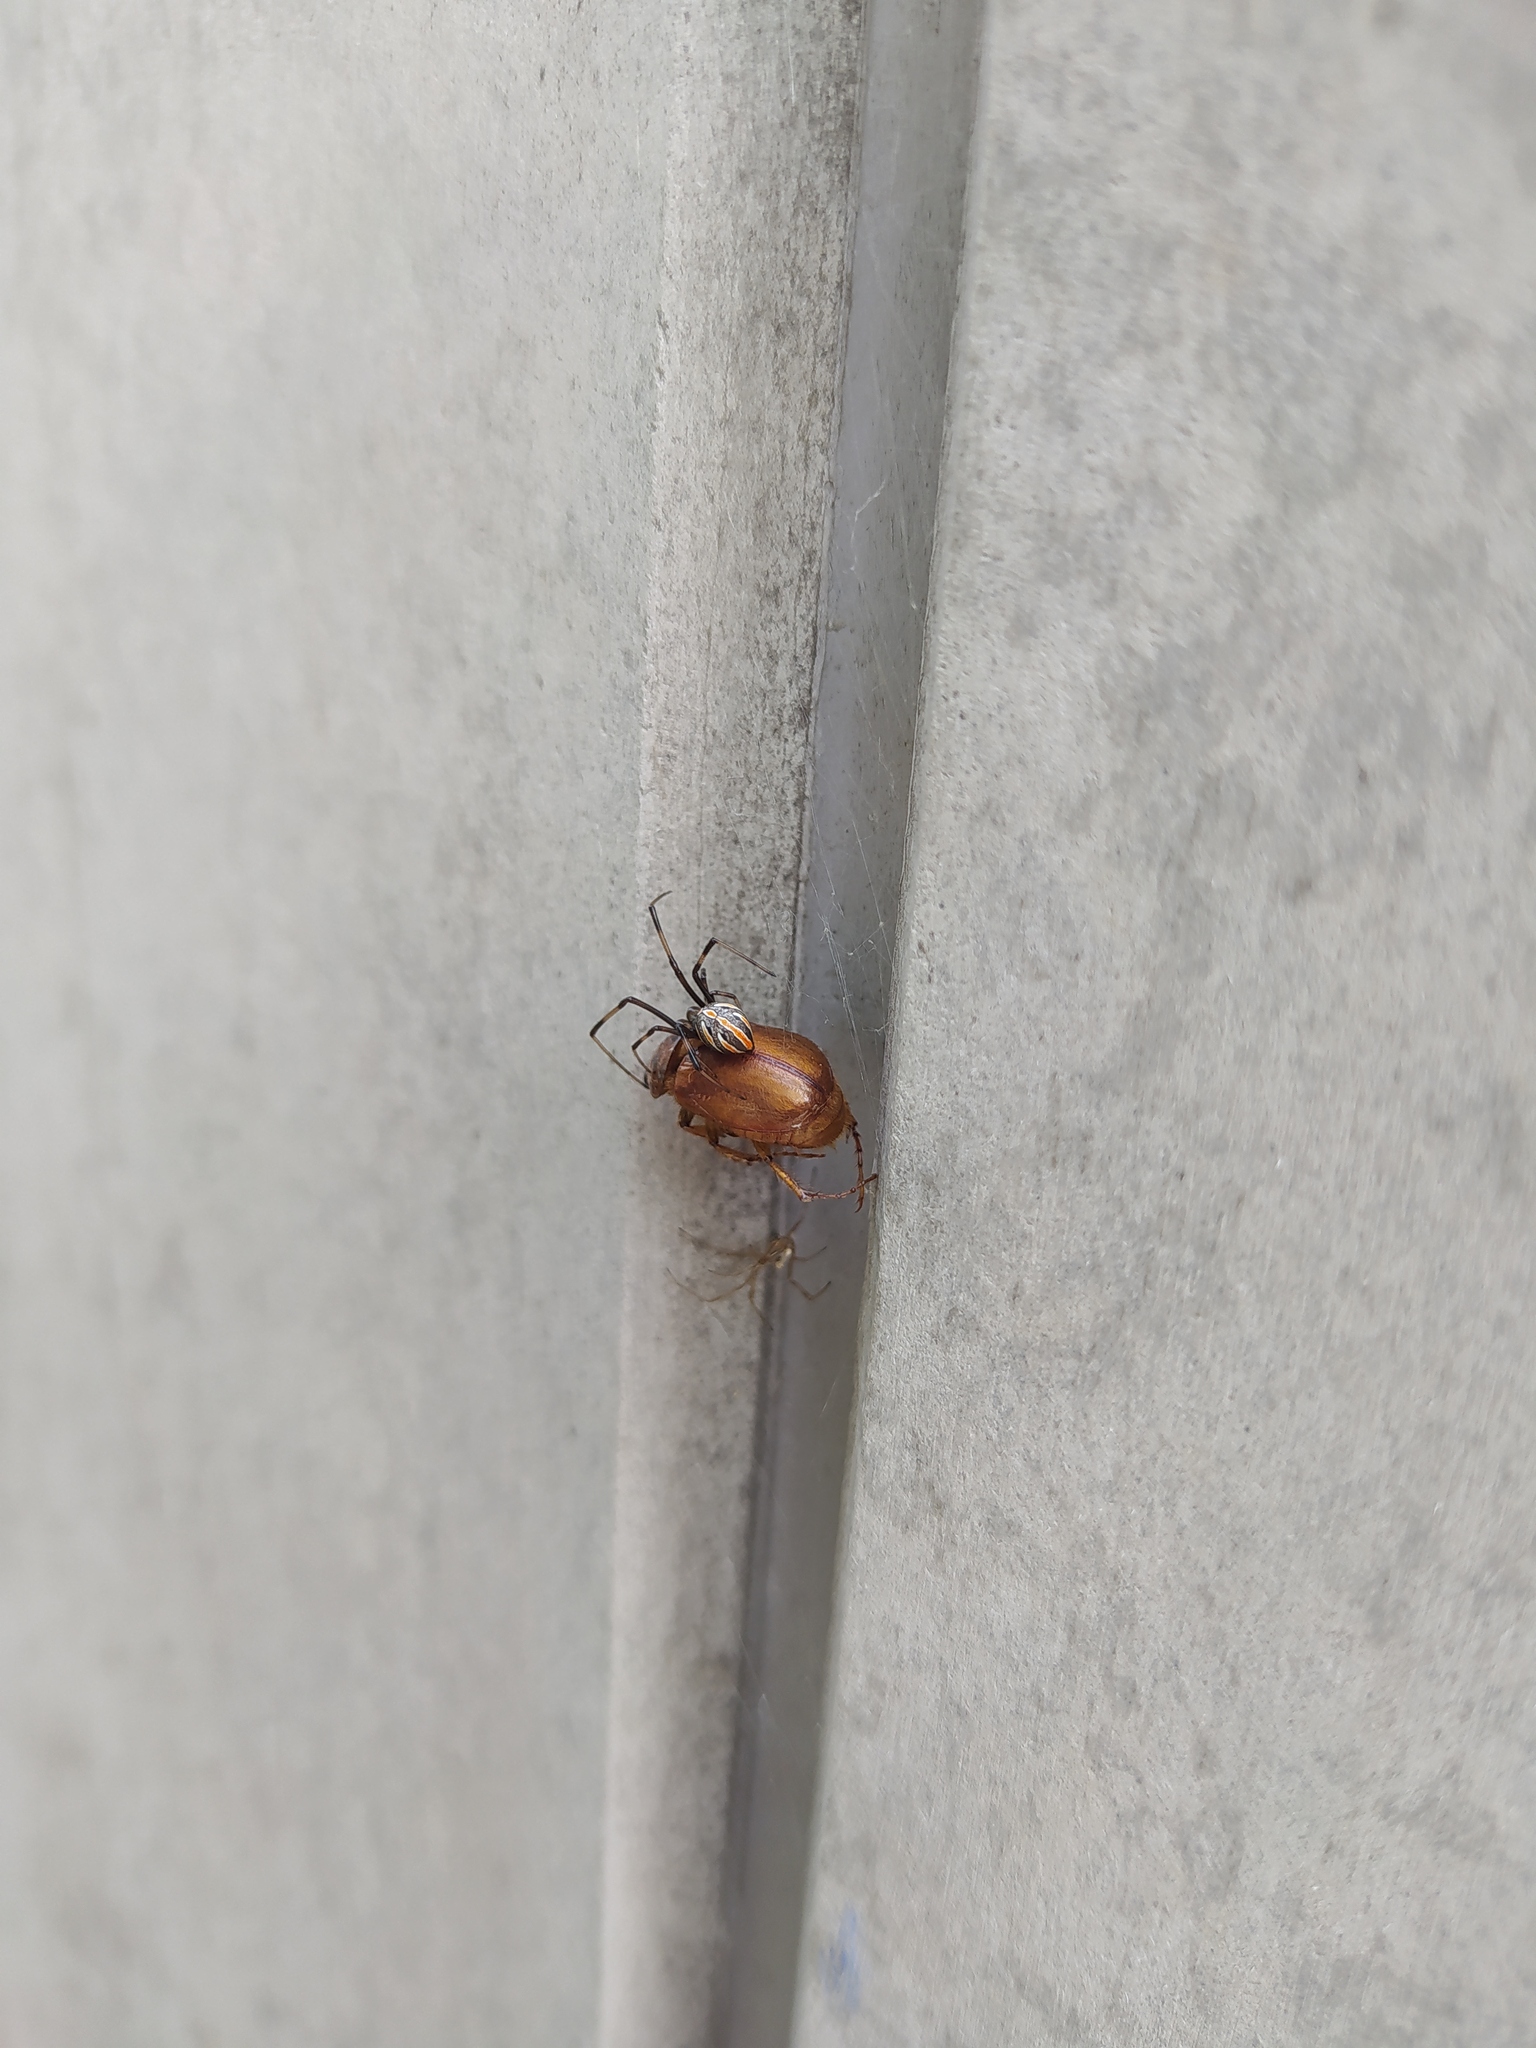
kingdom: Animalia
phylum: Arthropoda
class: Arachnida
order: Araneae
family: Theridiidae
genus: Latrodectus
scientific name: Latrodectus hesperus
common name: Western black widow
